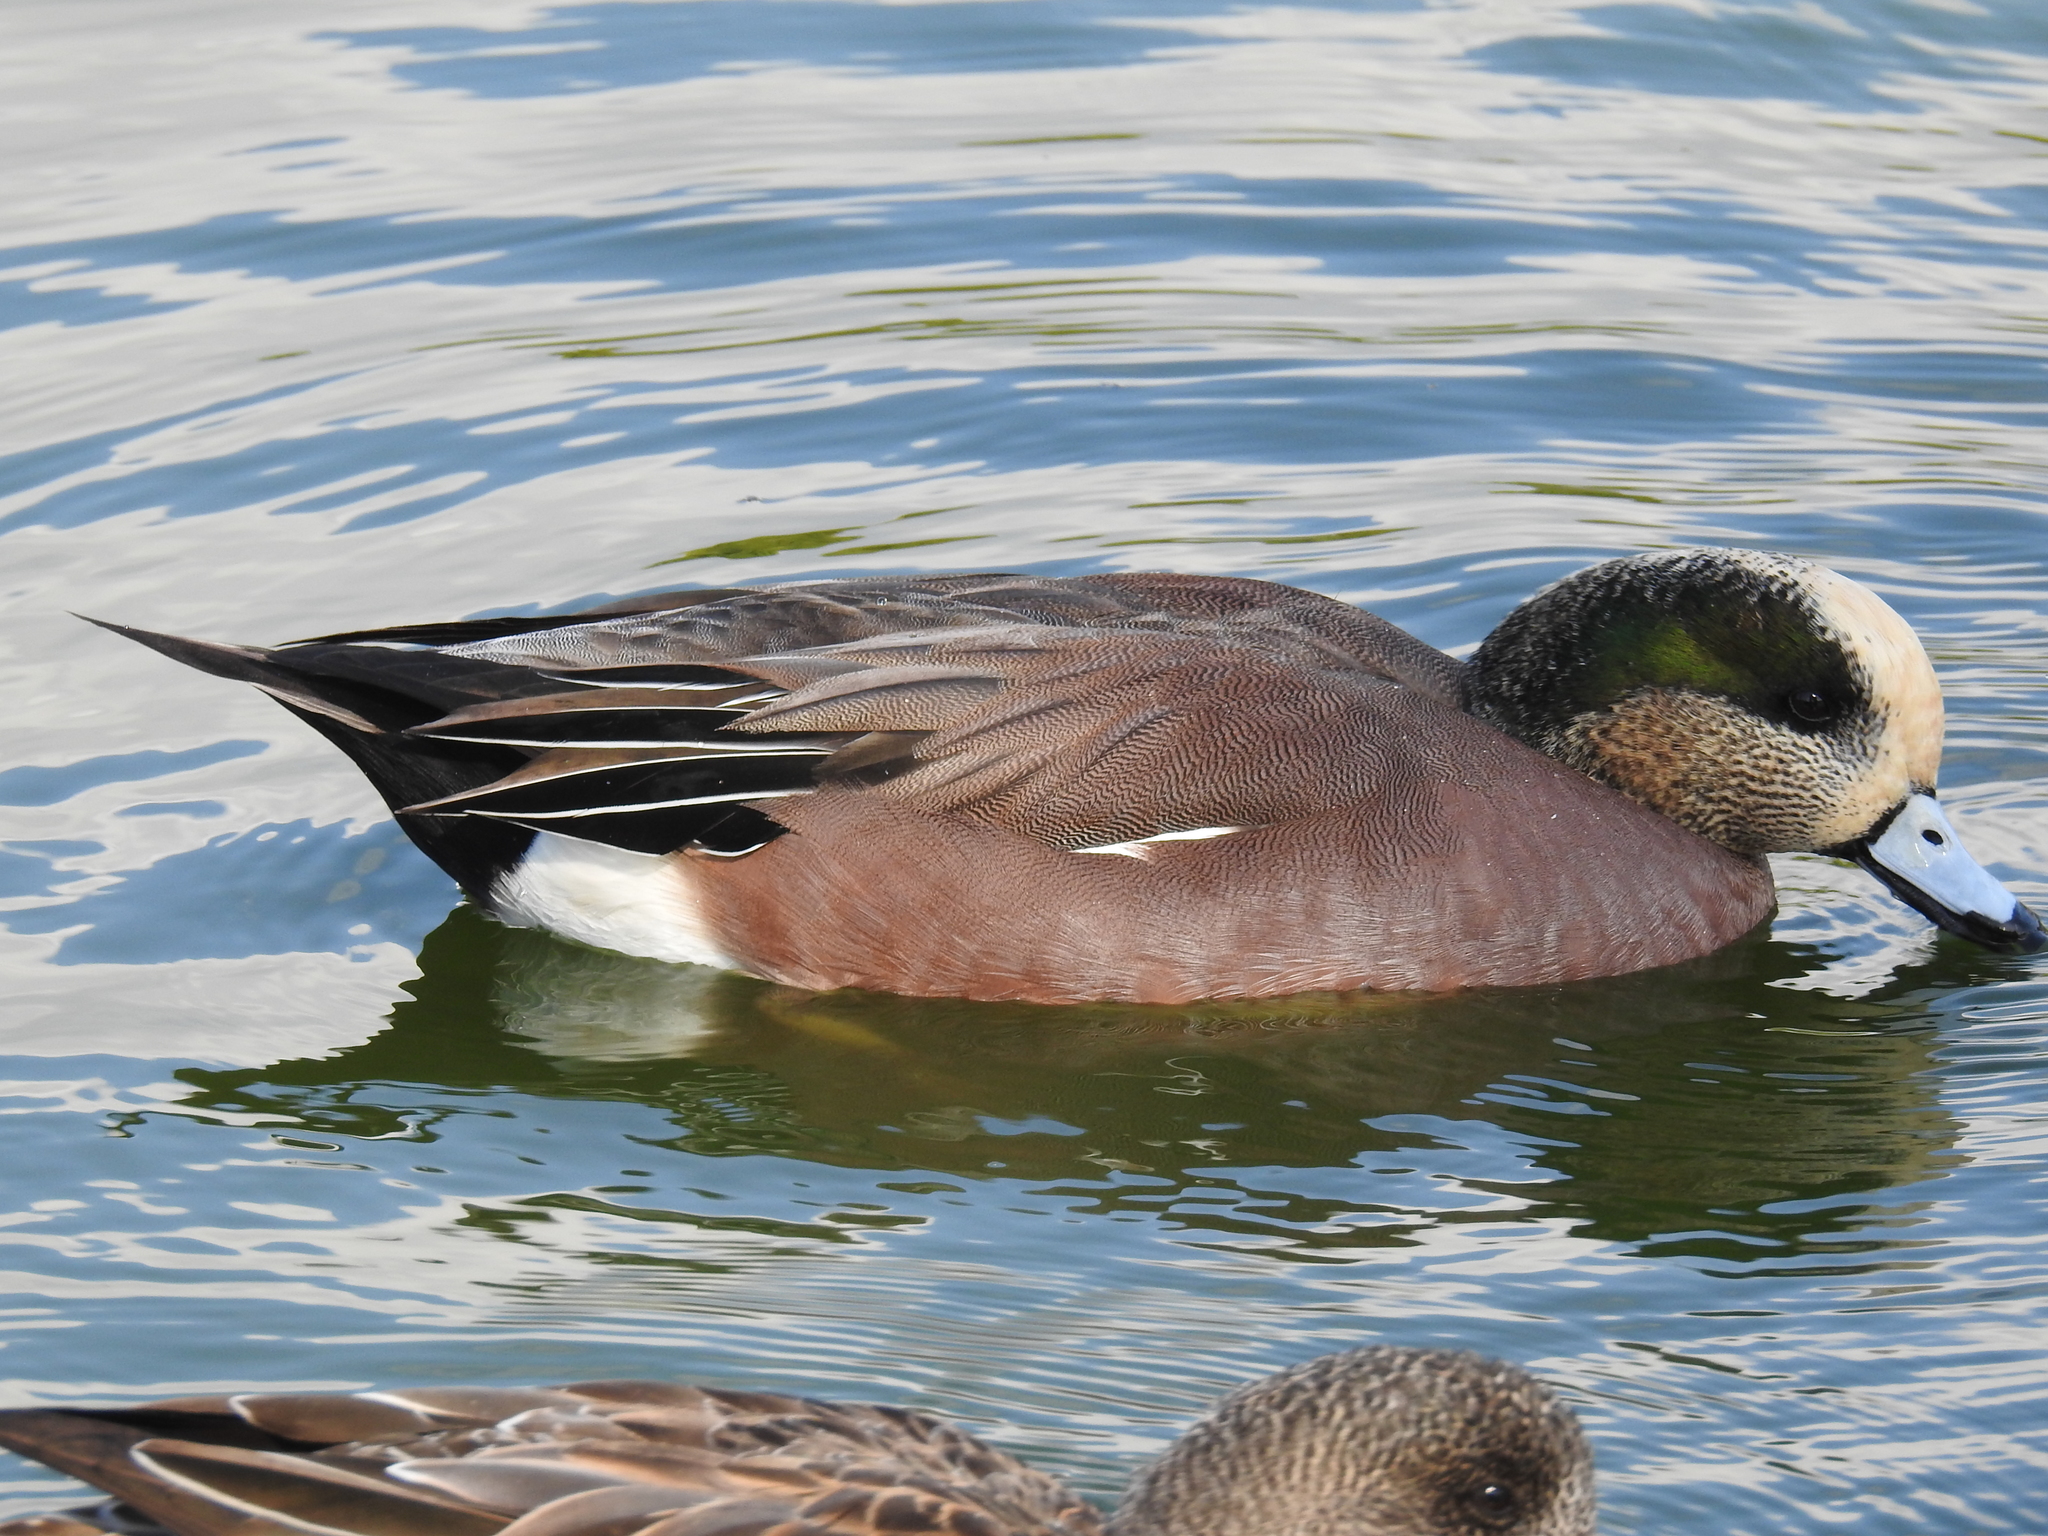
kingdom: Animalia
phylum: Chordata
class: Aves
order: Anseriformes
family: Anatidae
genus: Mareca
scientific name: Mareca americana
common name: American wigeon
